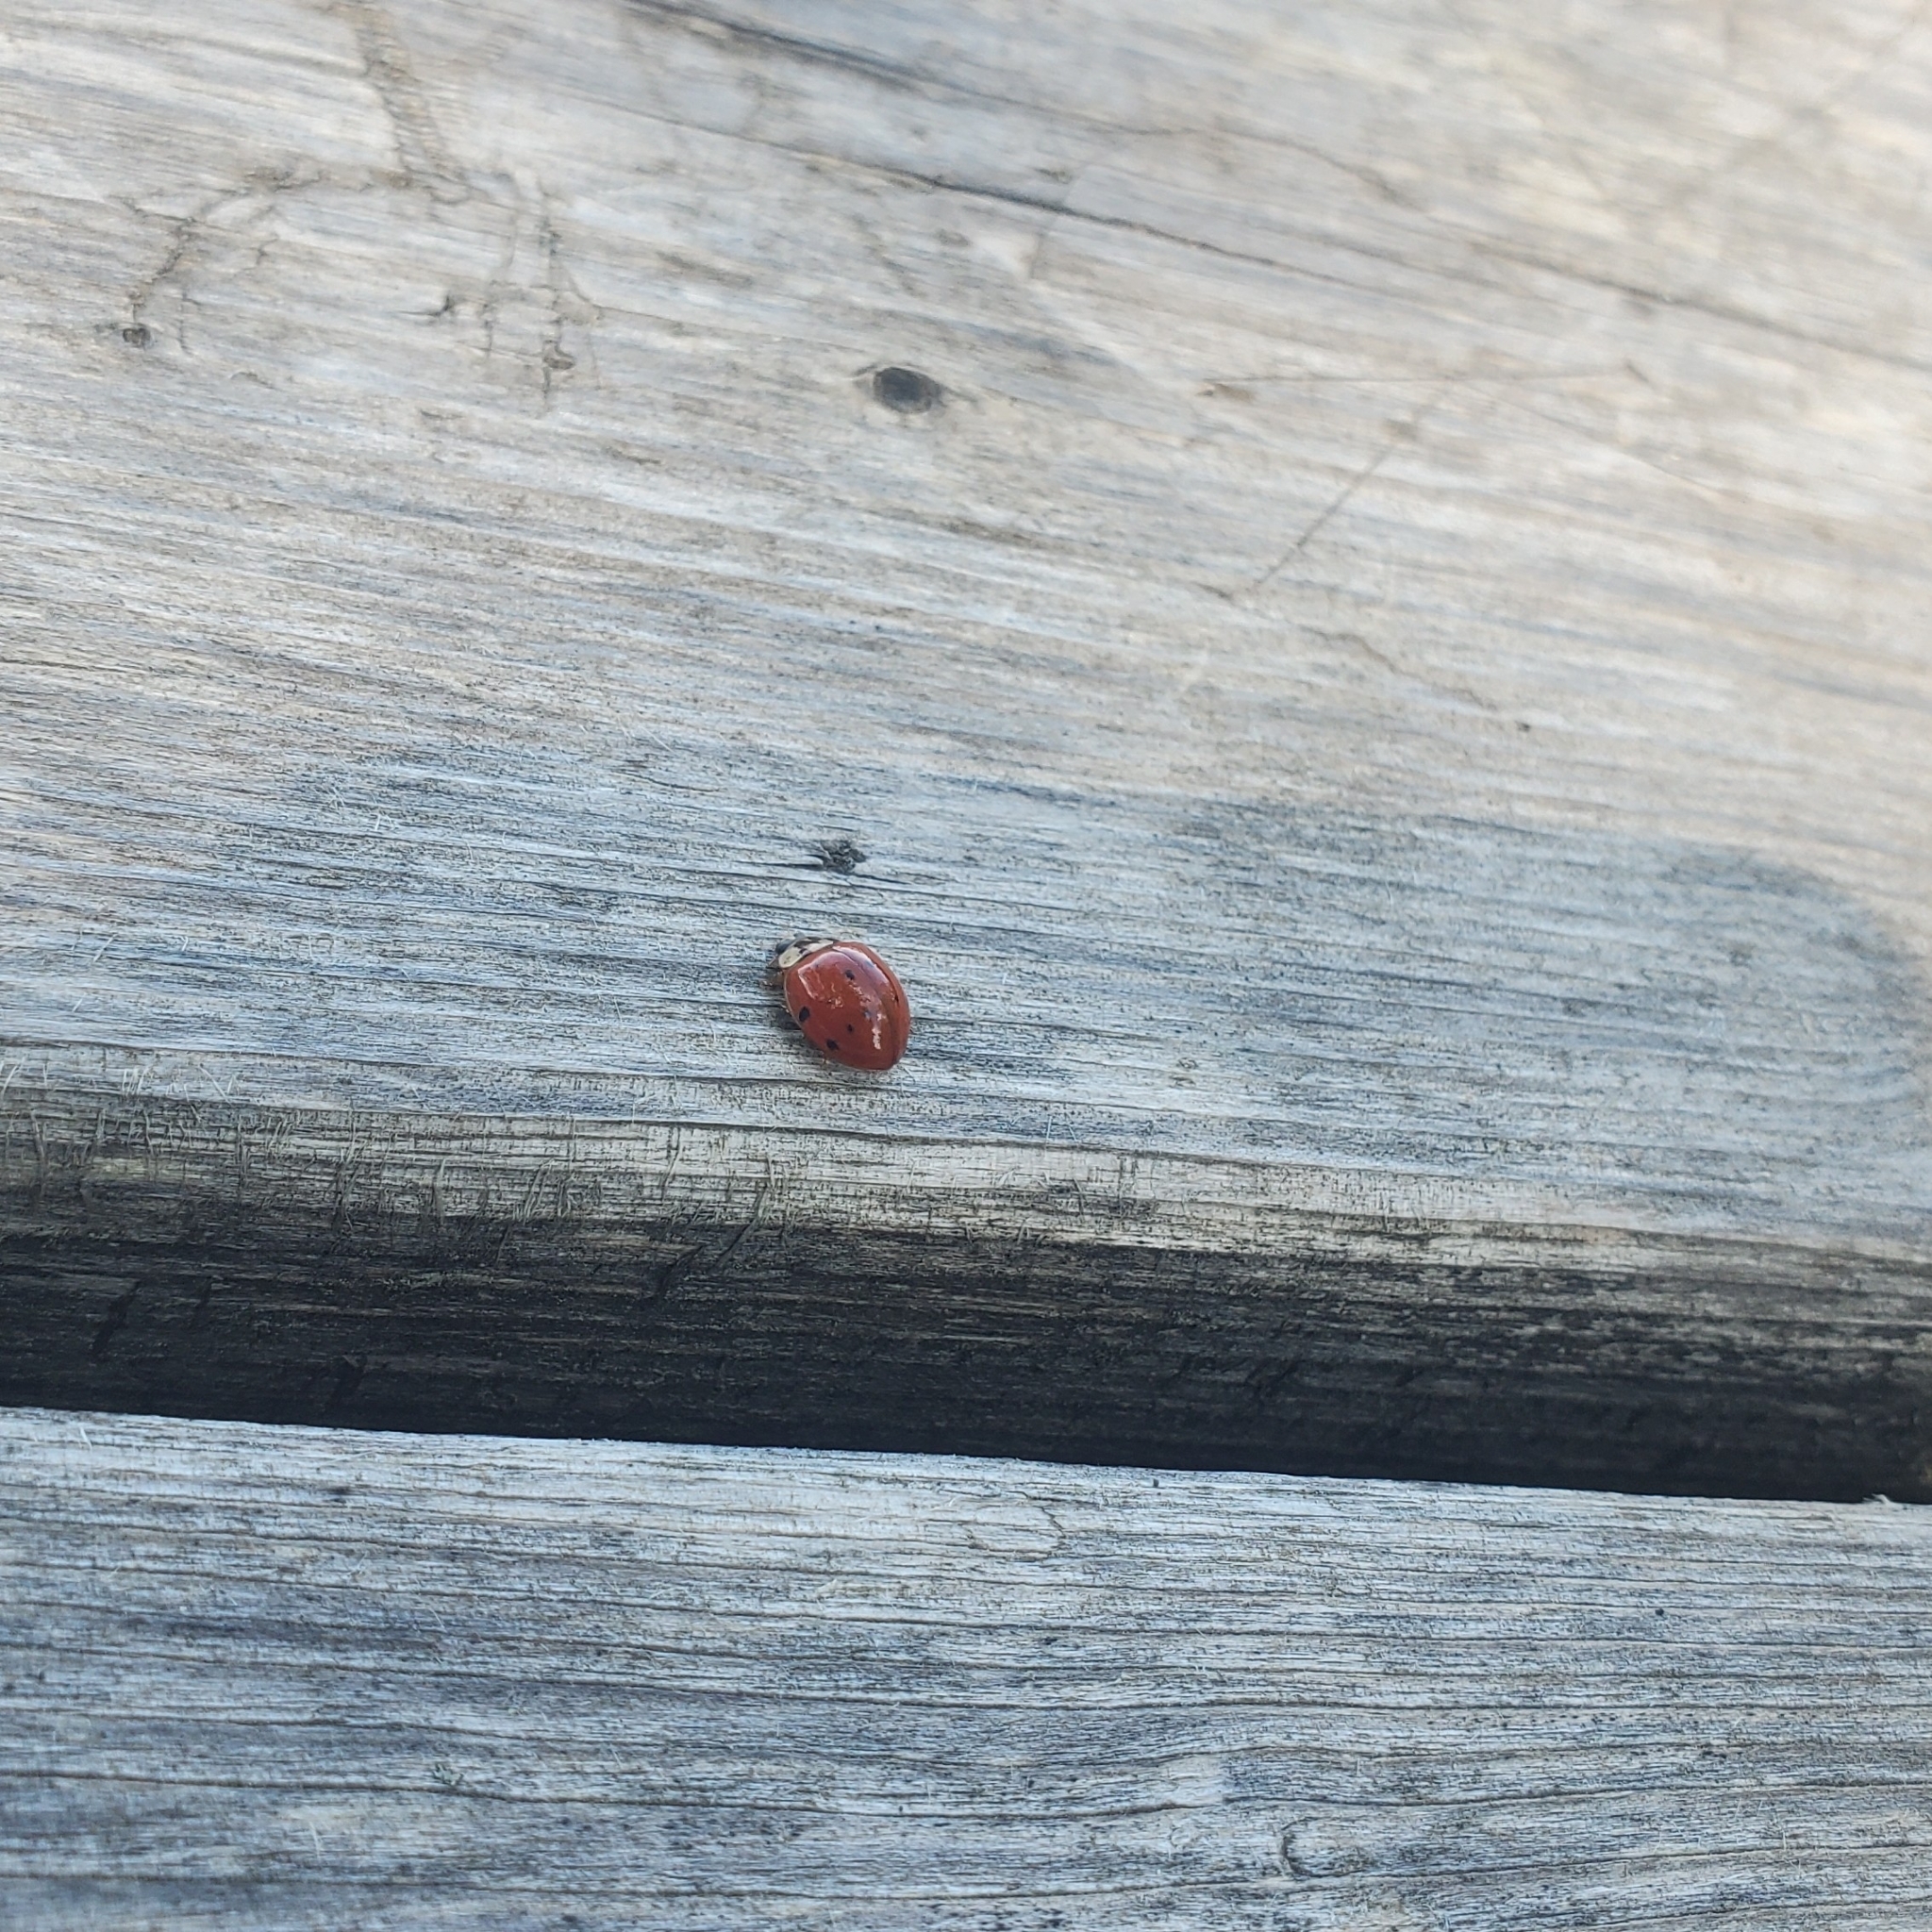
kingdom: Animalia
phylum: Arthropoda
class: Insecta
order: Coleoptera
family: Coccinellidae
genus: Harmonia
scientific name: Harmonia axyridis
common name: Harlequin ladybird
